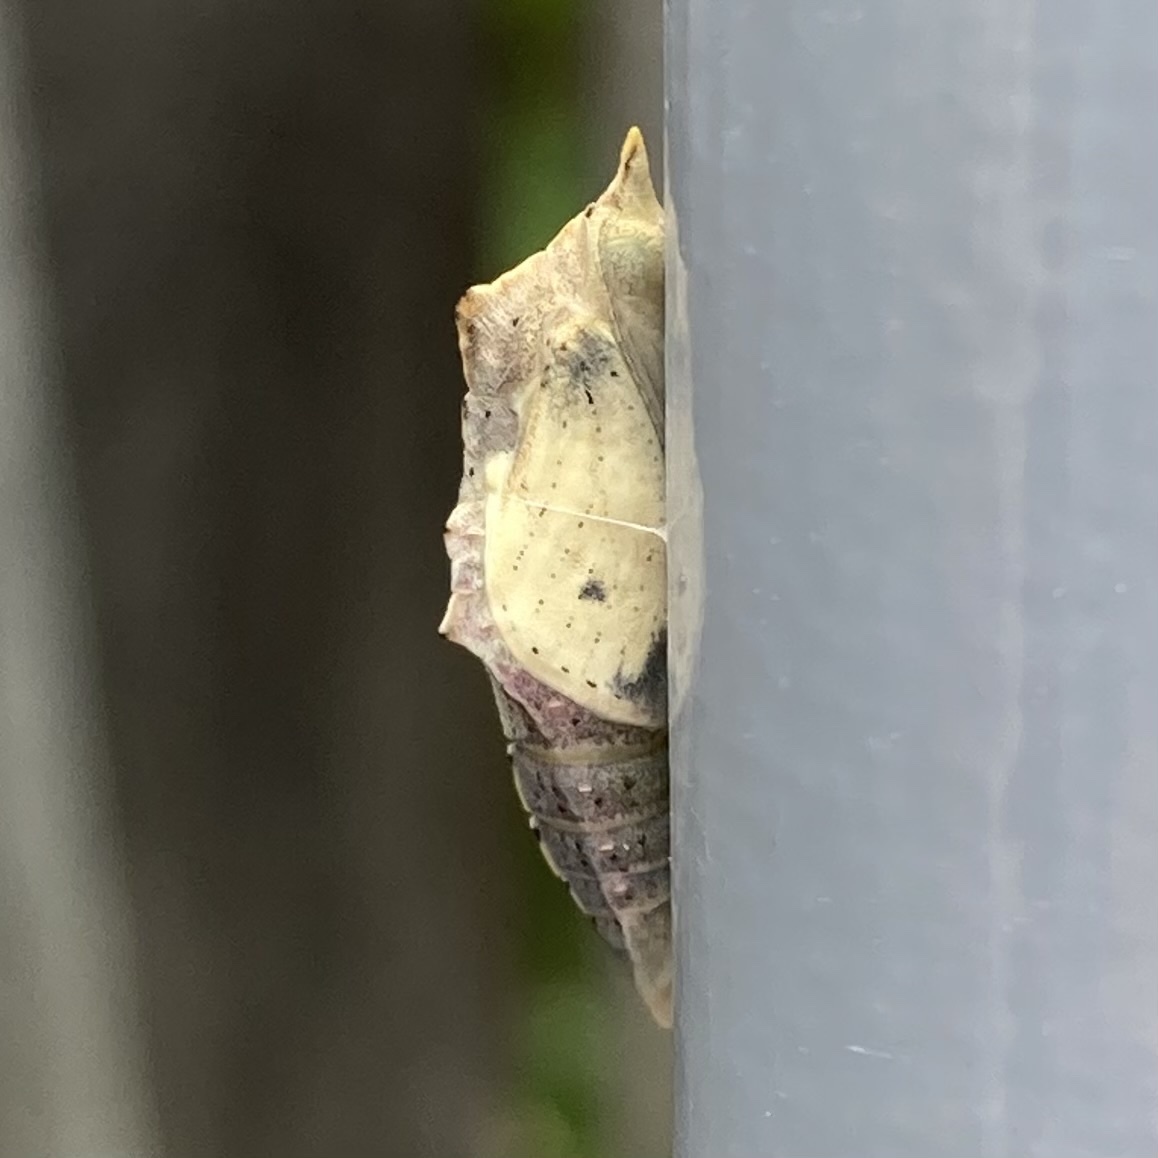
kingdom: Animalia
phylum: Arthropoda
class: Insecta
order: Lepidoptera
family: Pieridae
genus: Pieris
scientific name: Pieris rapae
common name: Small white
